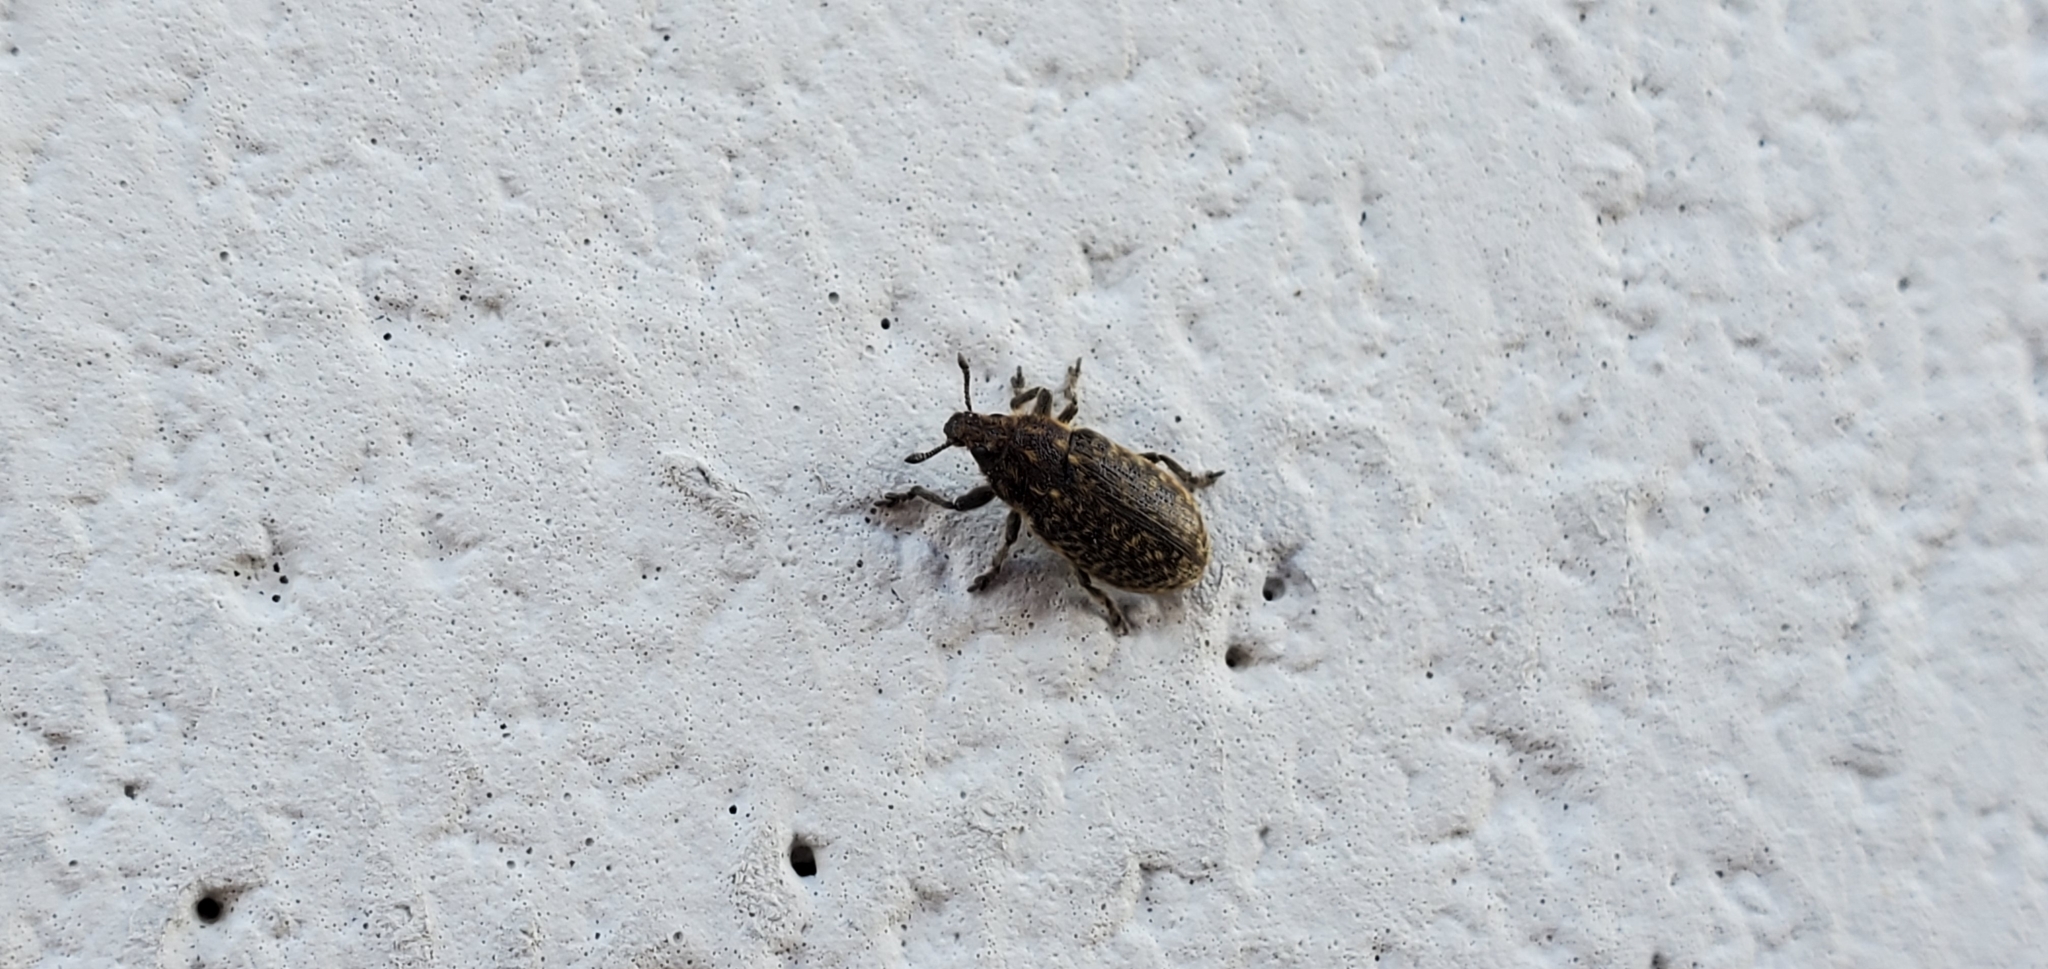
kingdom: Animalia
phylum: Arthropoda
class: Insecta
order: Coleoptera
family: Curculionidae
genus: Rhinocyllus
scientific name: Rhinocyllus conicus
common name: Weevil
